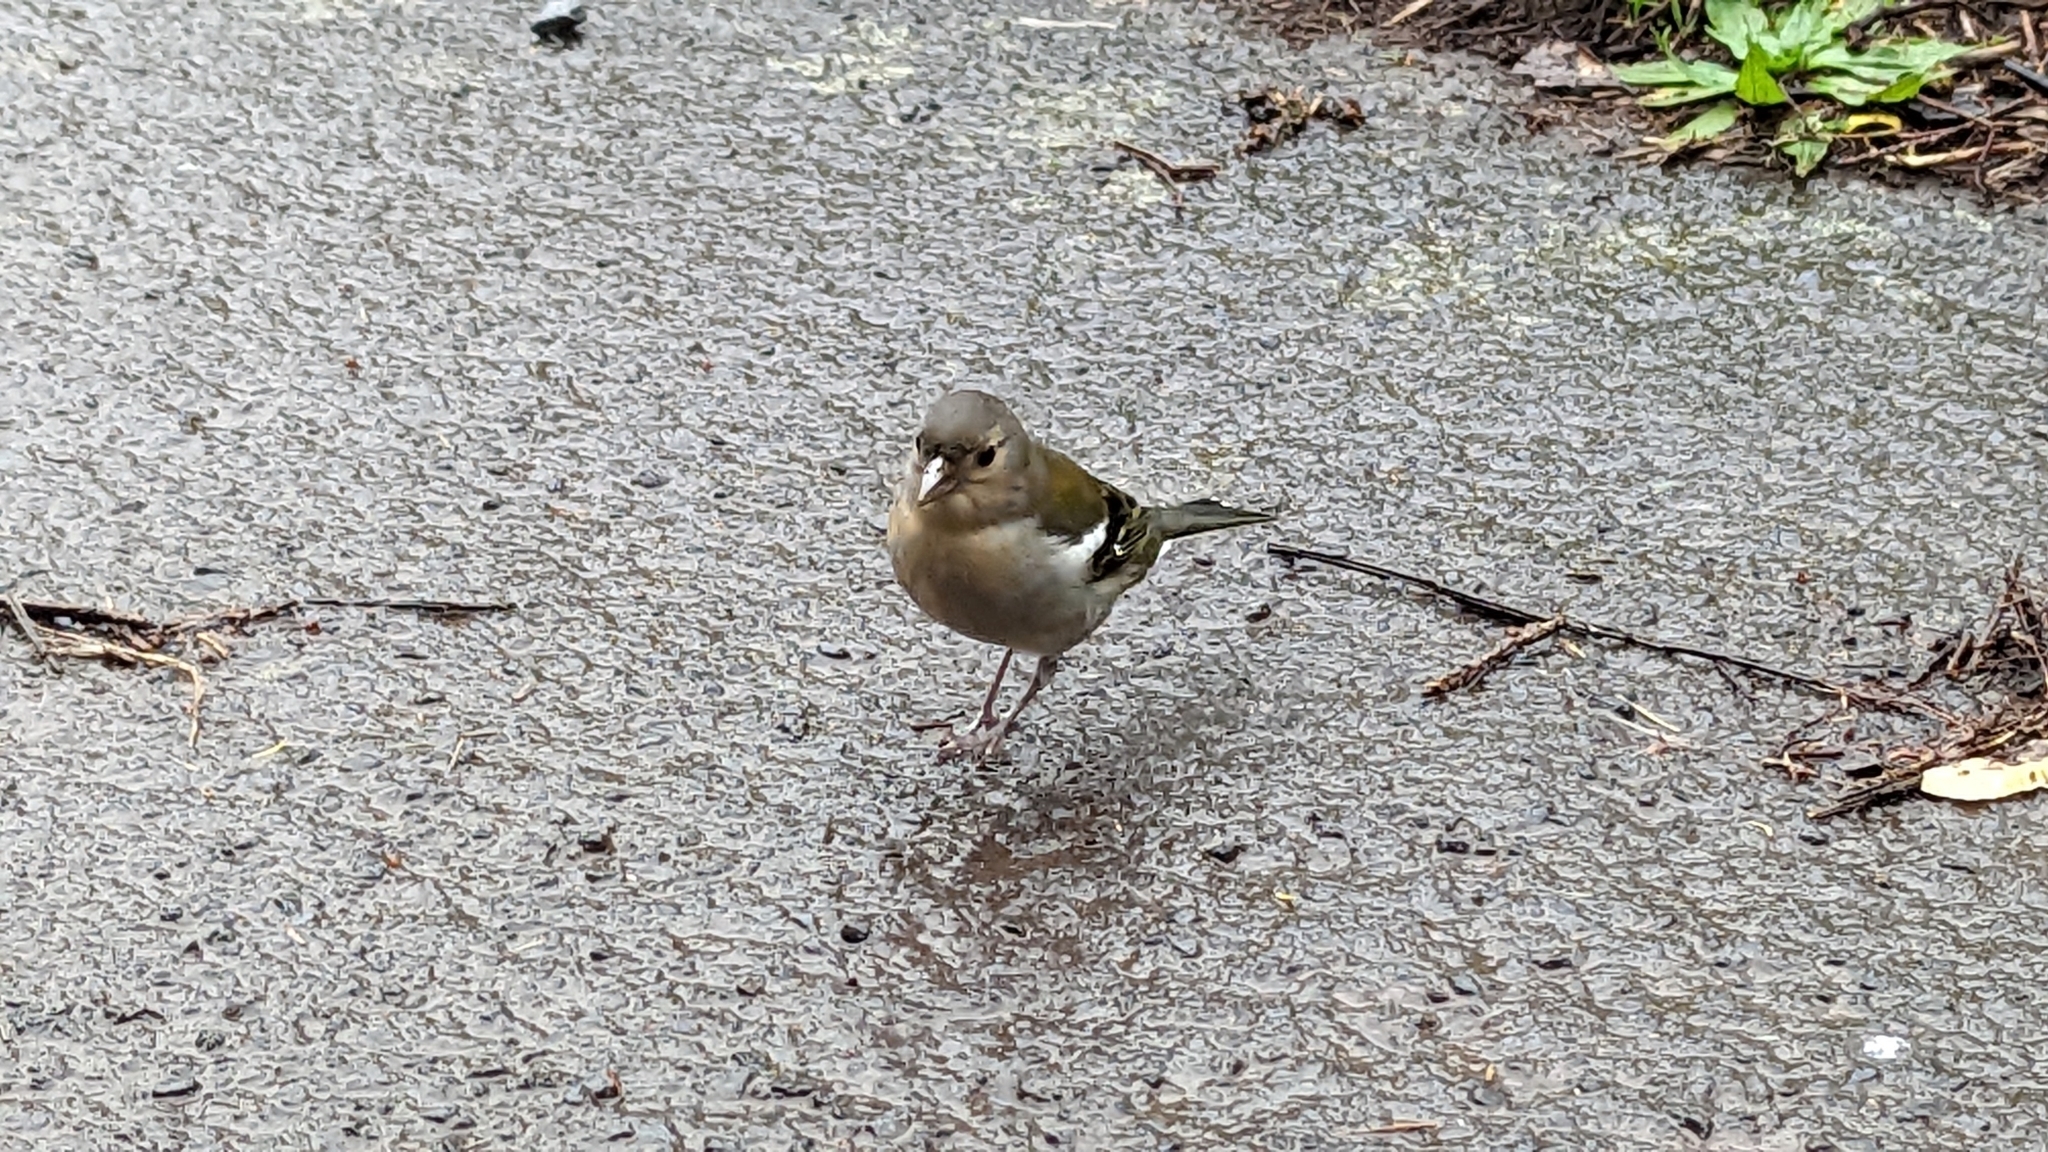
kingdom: Animalia
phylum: Chordata
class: Aves
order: Passeriformes
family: Fringillidae
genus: Fringilla
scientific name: Fringilla maderensis
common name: Madeira chaffinch
